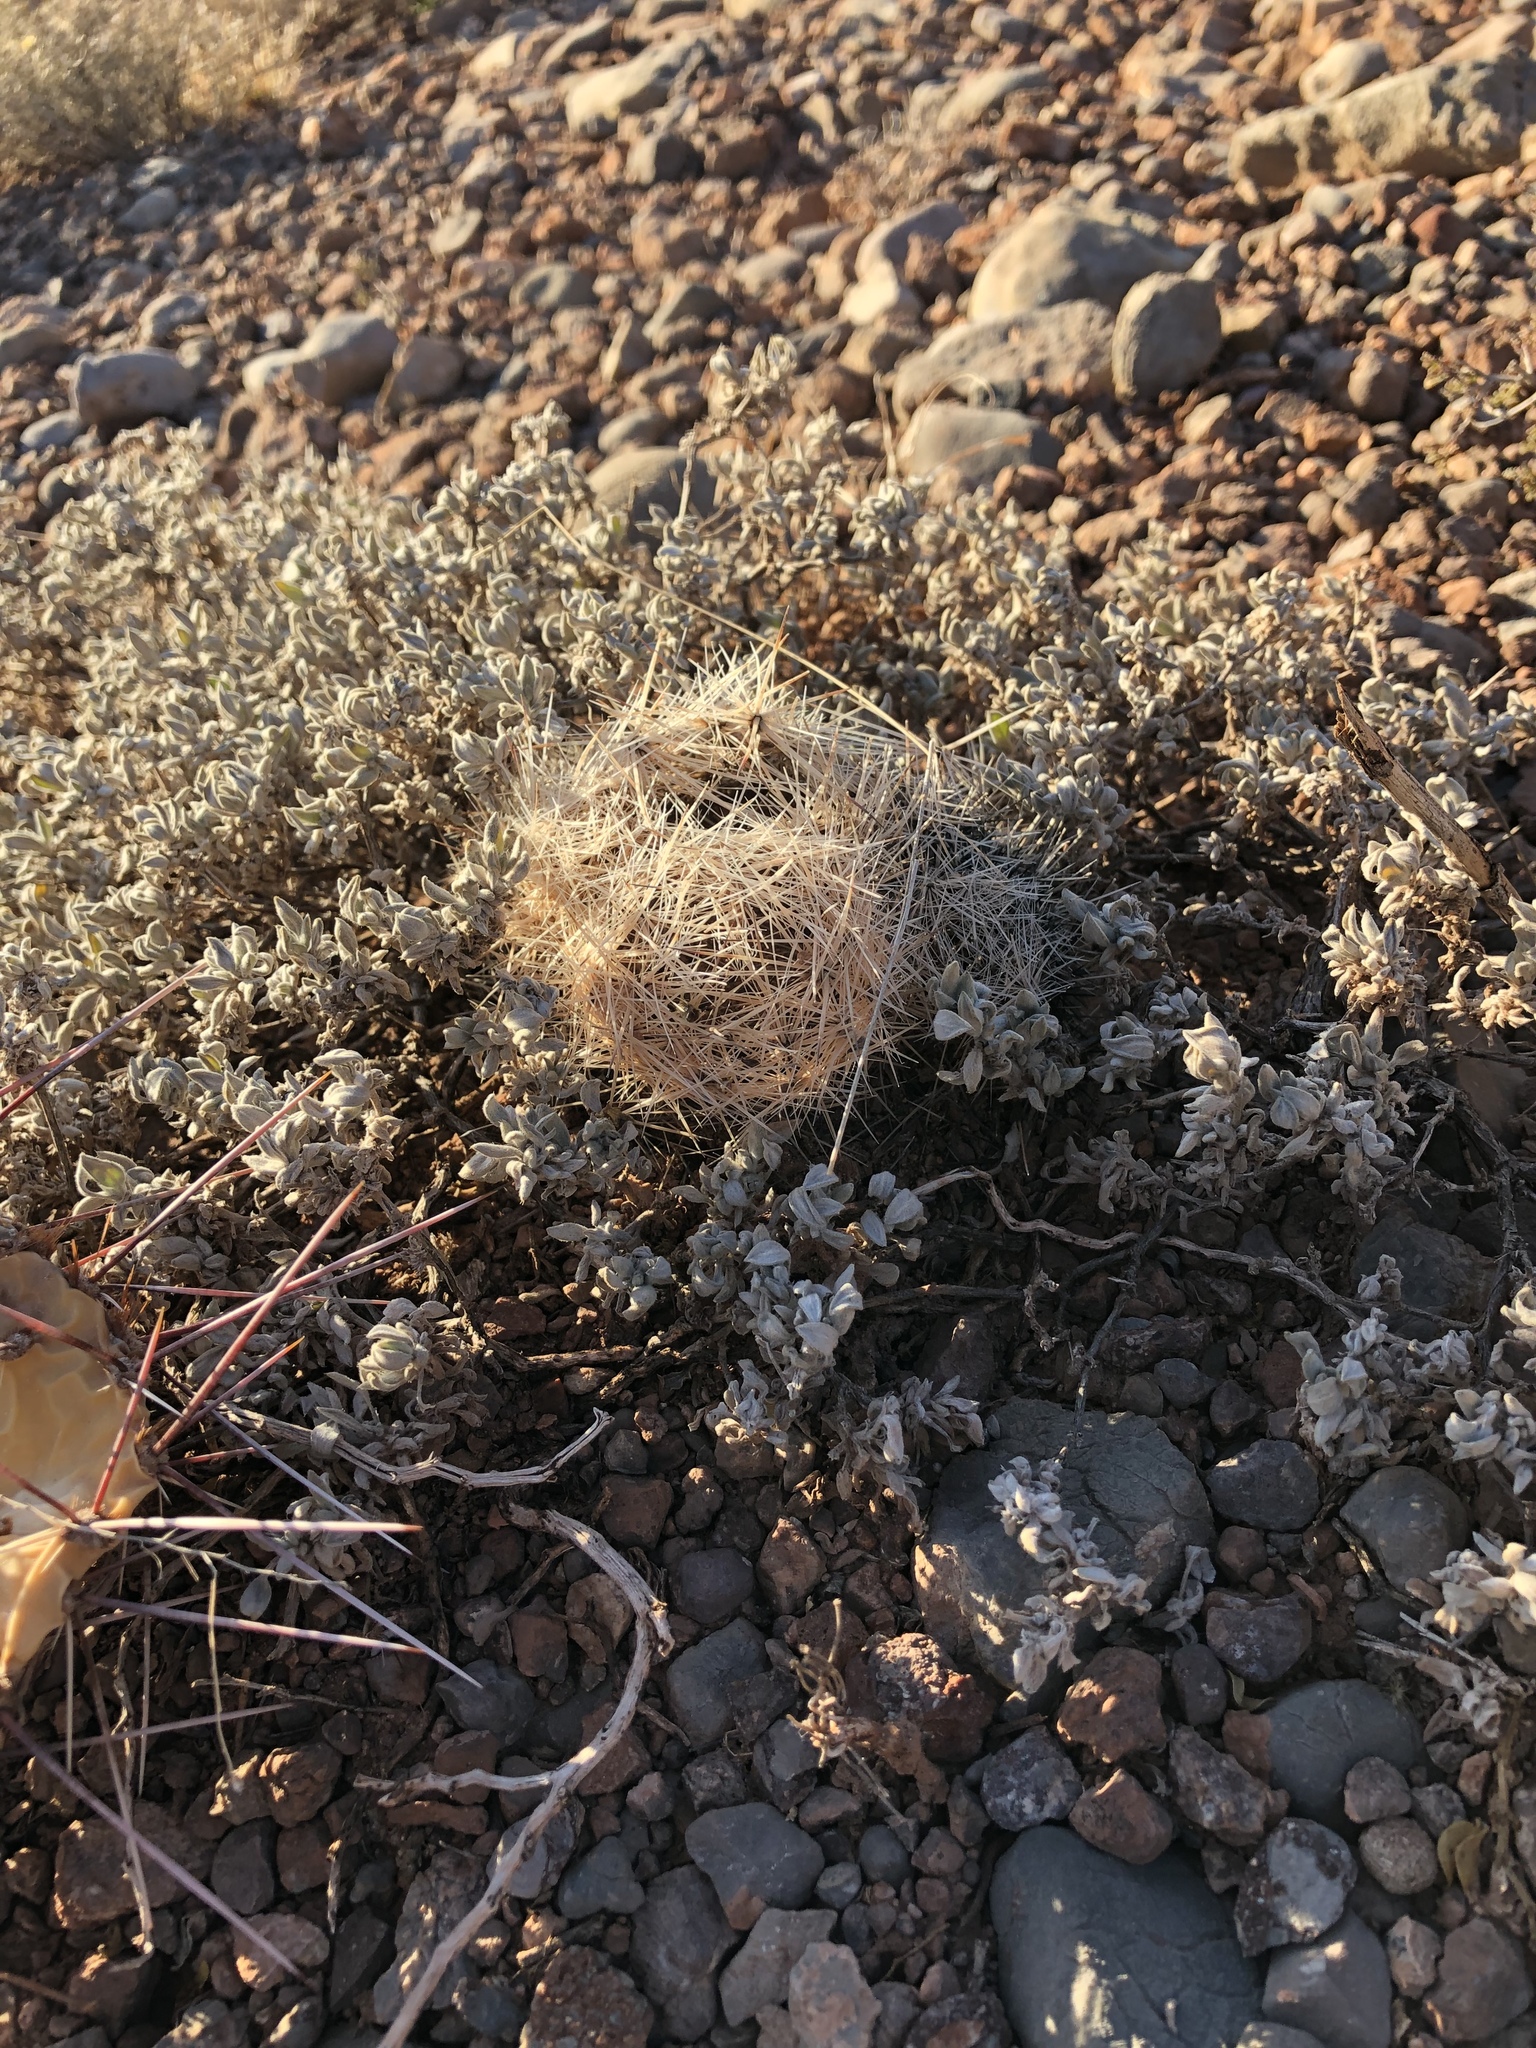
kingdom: Plantae
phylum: Tracheophyta
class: Magnoliopsida
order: Caryophyllales
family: Cactaceae
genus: Pelecyphora
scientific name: Pelecyphora vivipara
